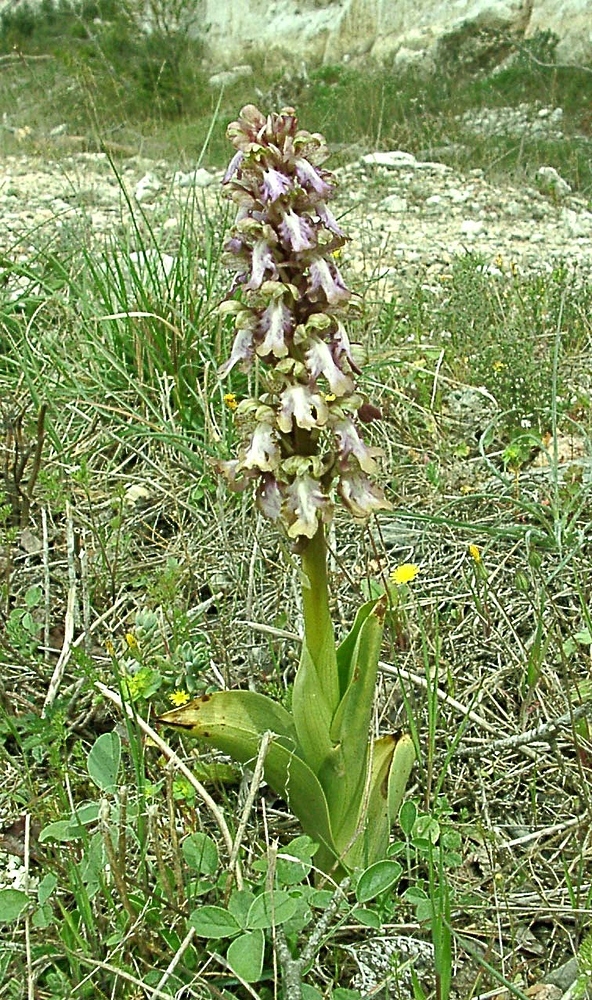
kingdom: Plantae
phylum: Tracheophyta
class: Liliopsida
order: Asparagales
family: Orchidaceae
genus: Himantoglossum
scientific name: Himantoglossum robertianum
